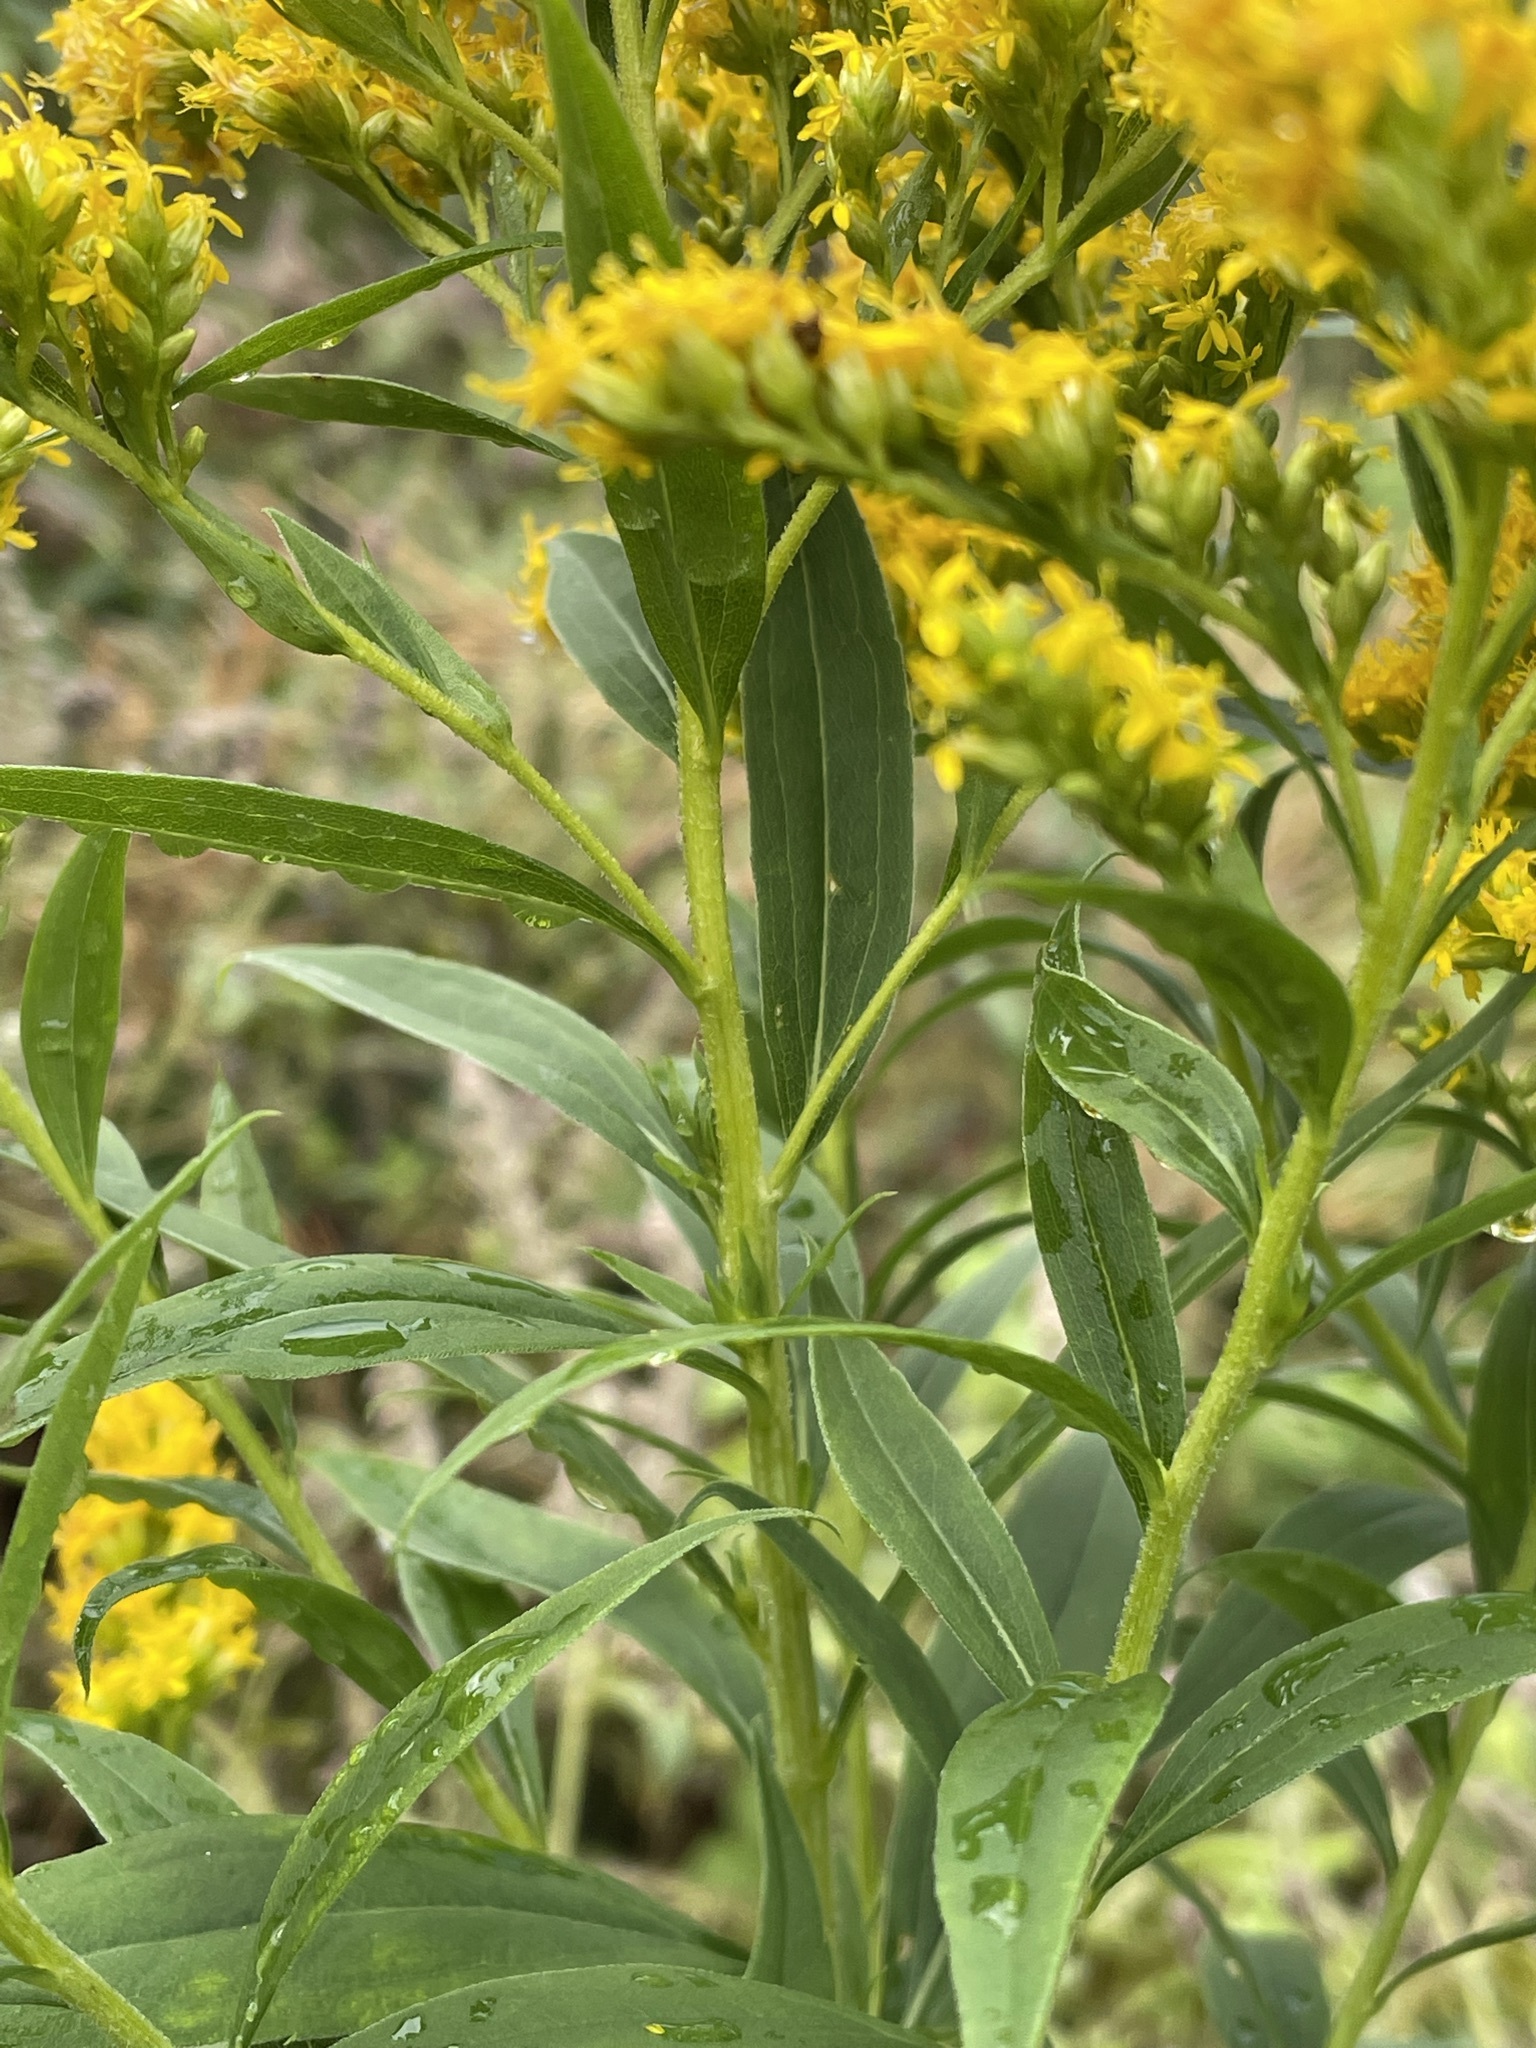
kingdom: Plantae
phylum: Tracheophyta
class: Magnoliopsida
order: Asterales
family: Asteraceae
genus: Solidago
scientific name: Solidago gigantea
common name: Giant goldenrod
